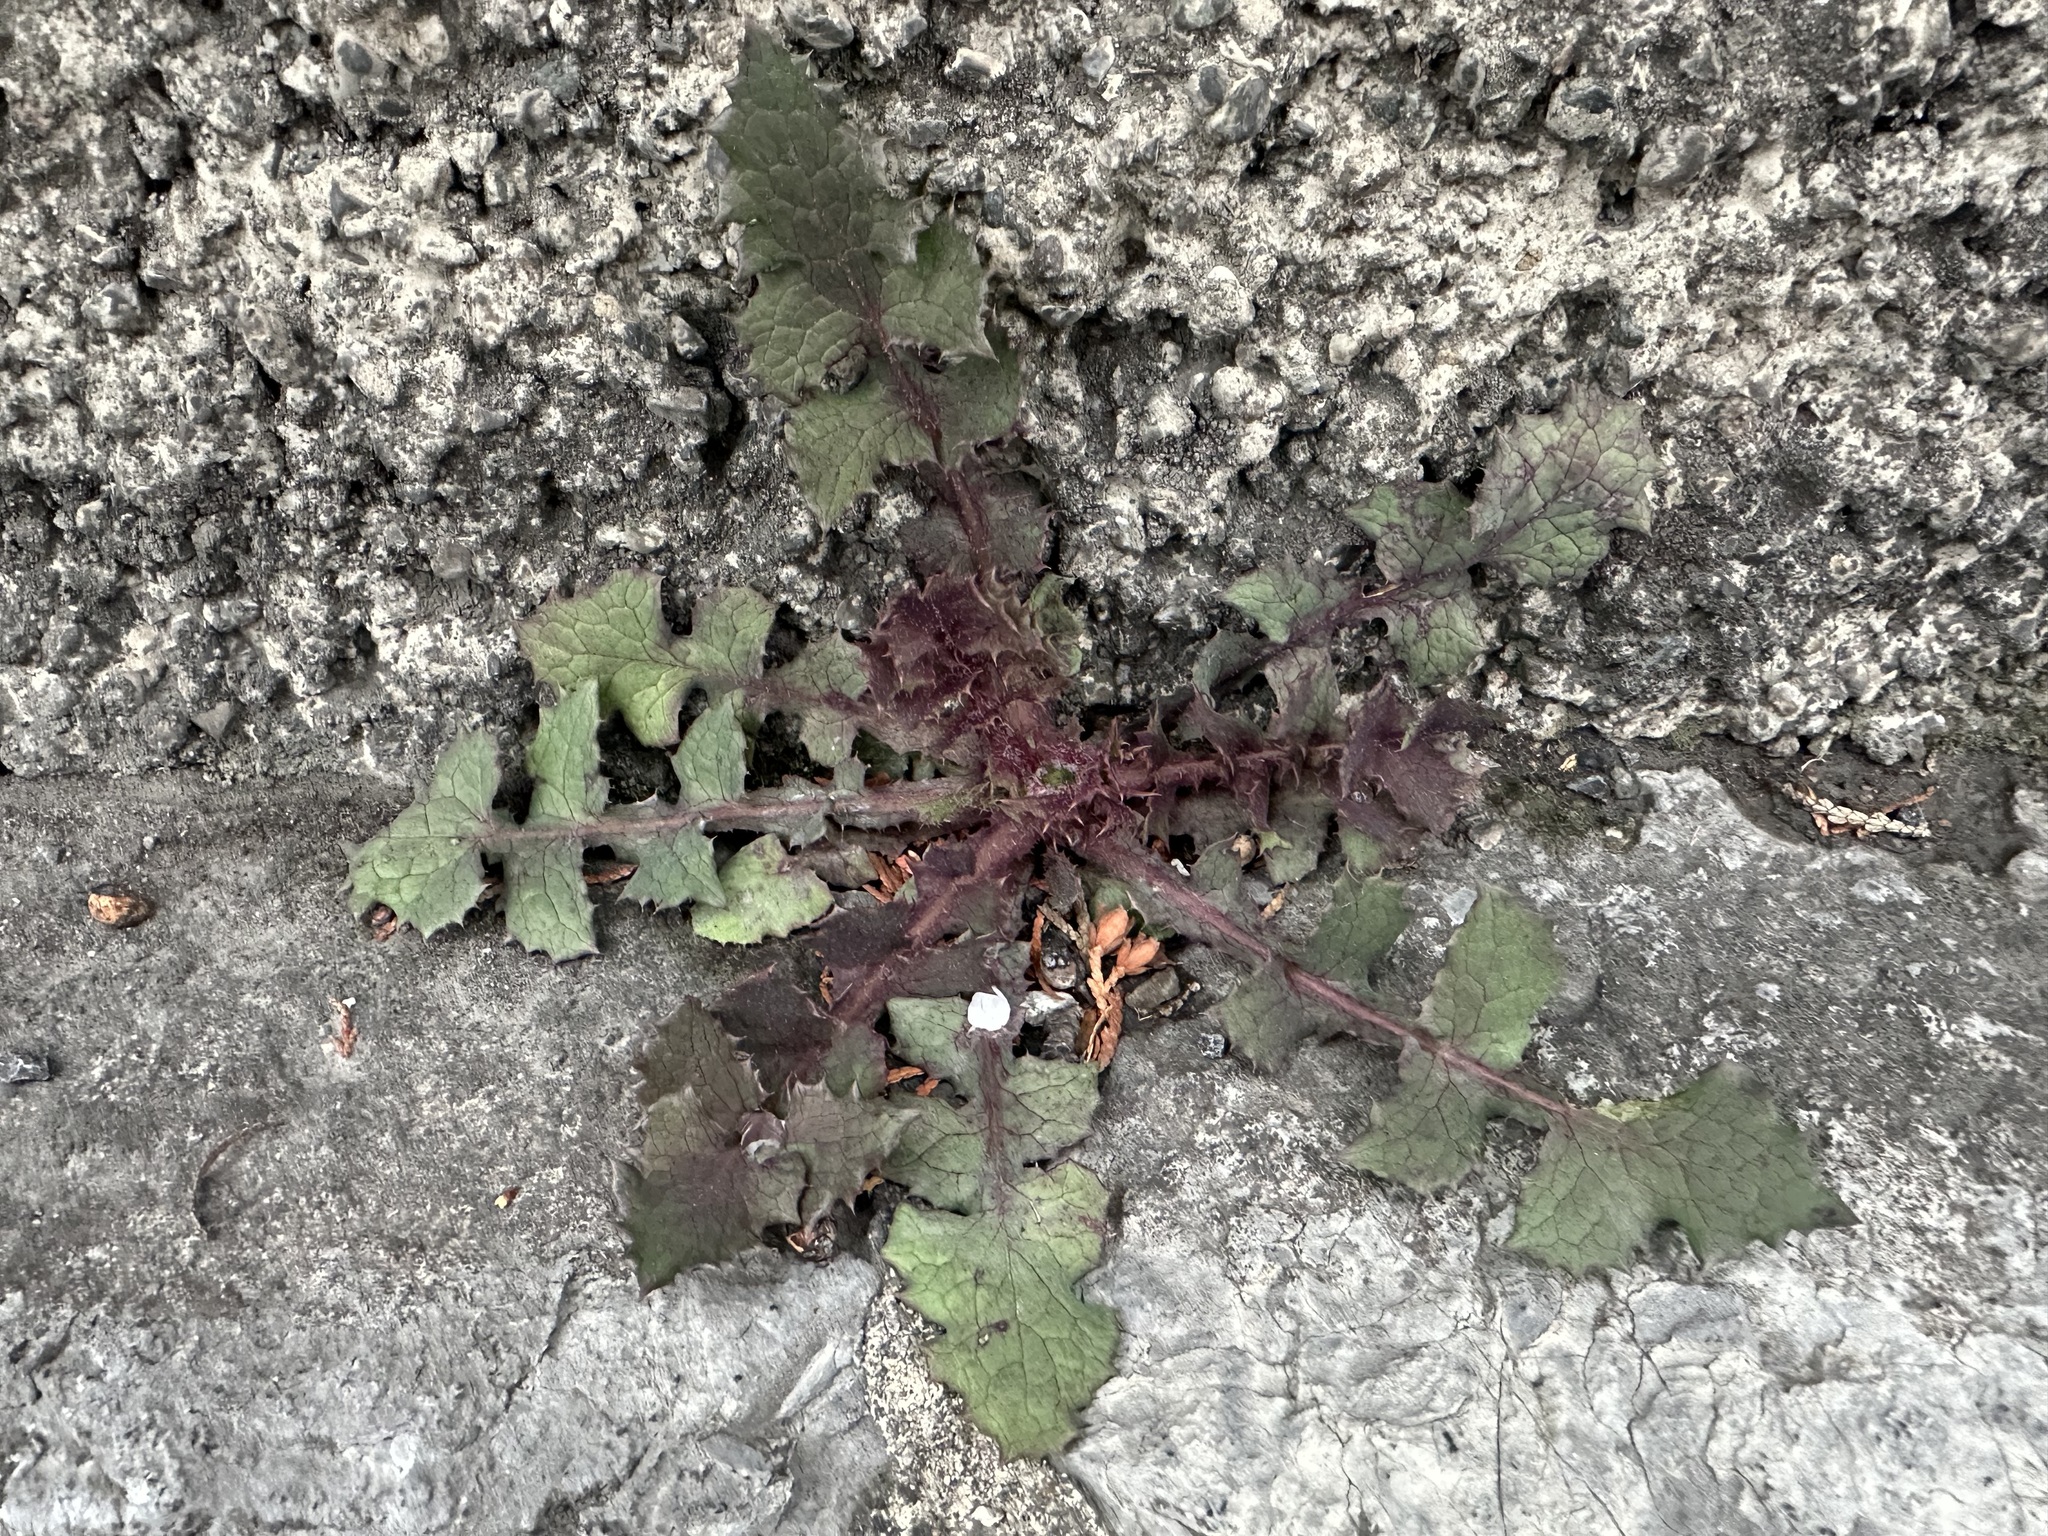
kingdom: Plantae
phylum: Tracheophyta
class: Magnoliopsida
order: Asterales
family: Asteraceae
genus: Sonchus
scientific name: Sonchus oleraceus
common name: Common sowthistle
